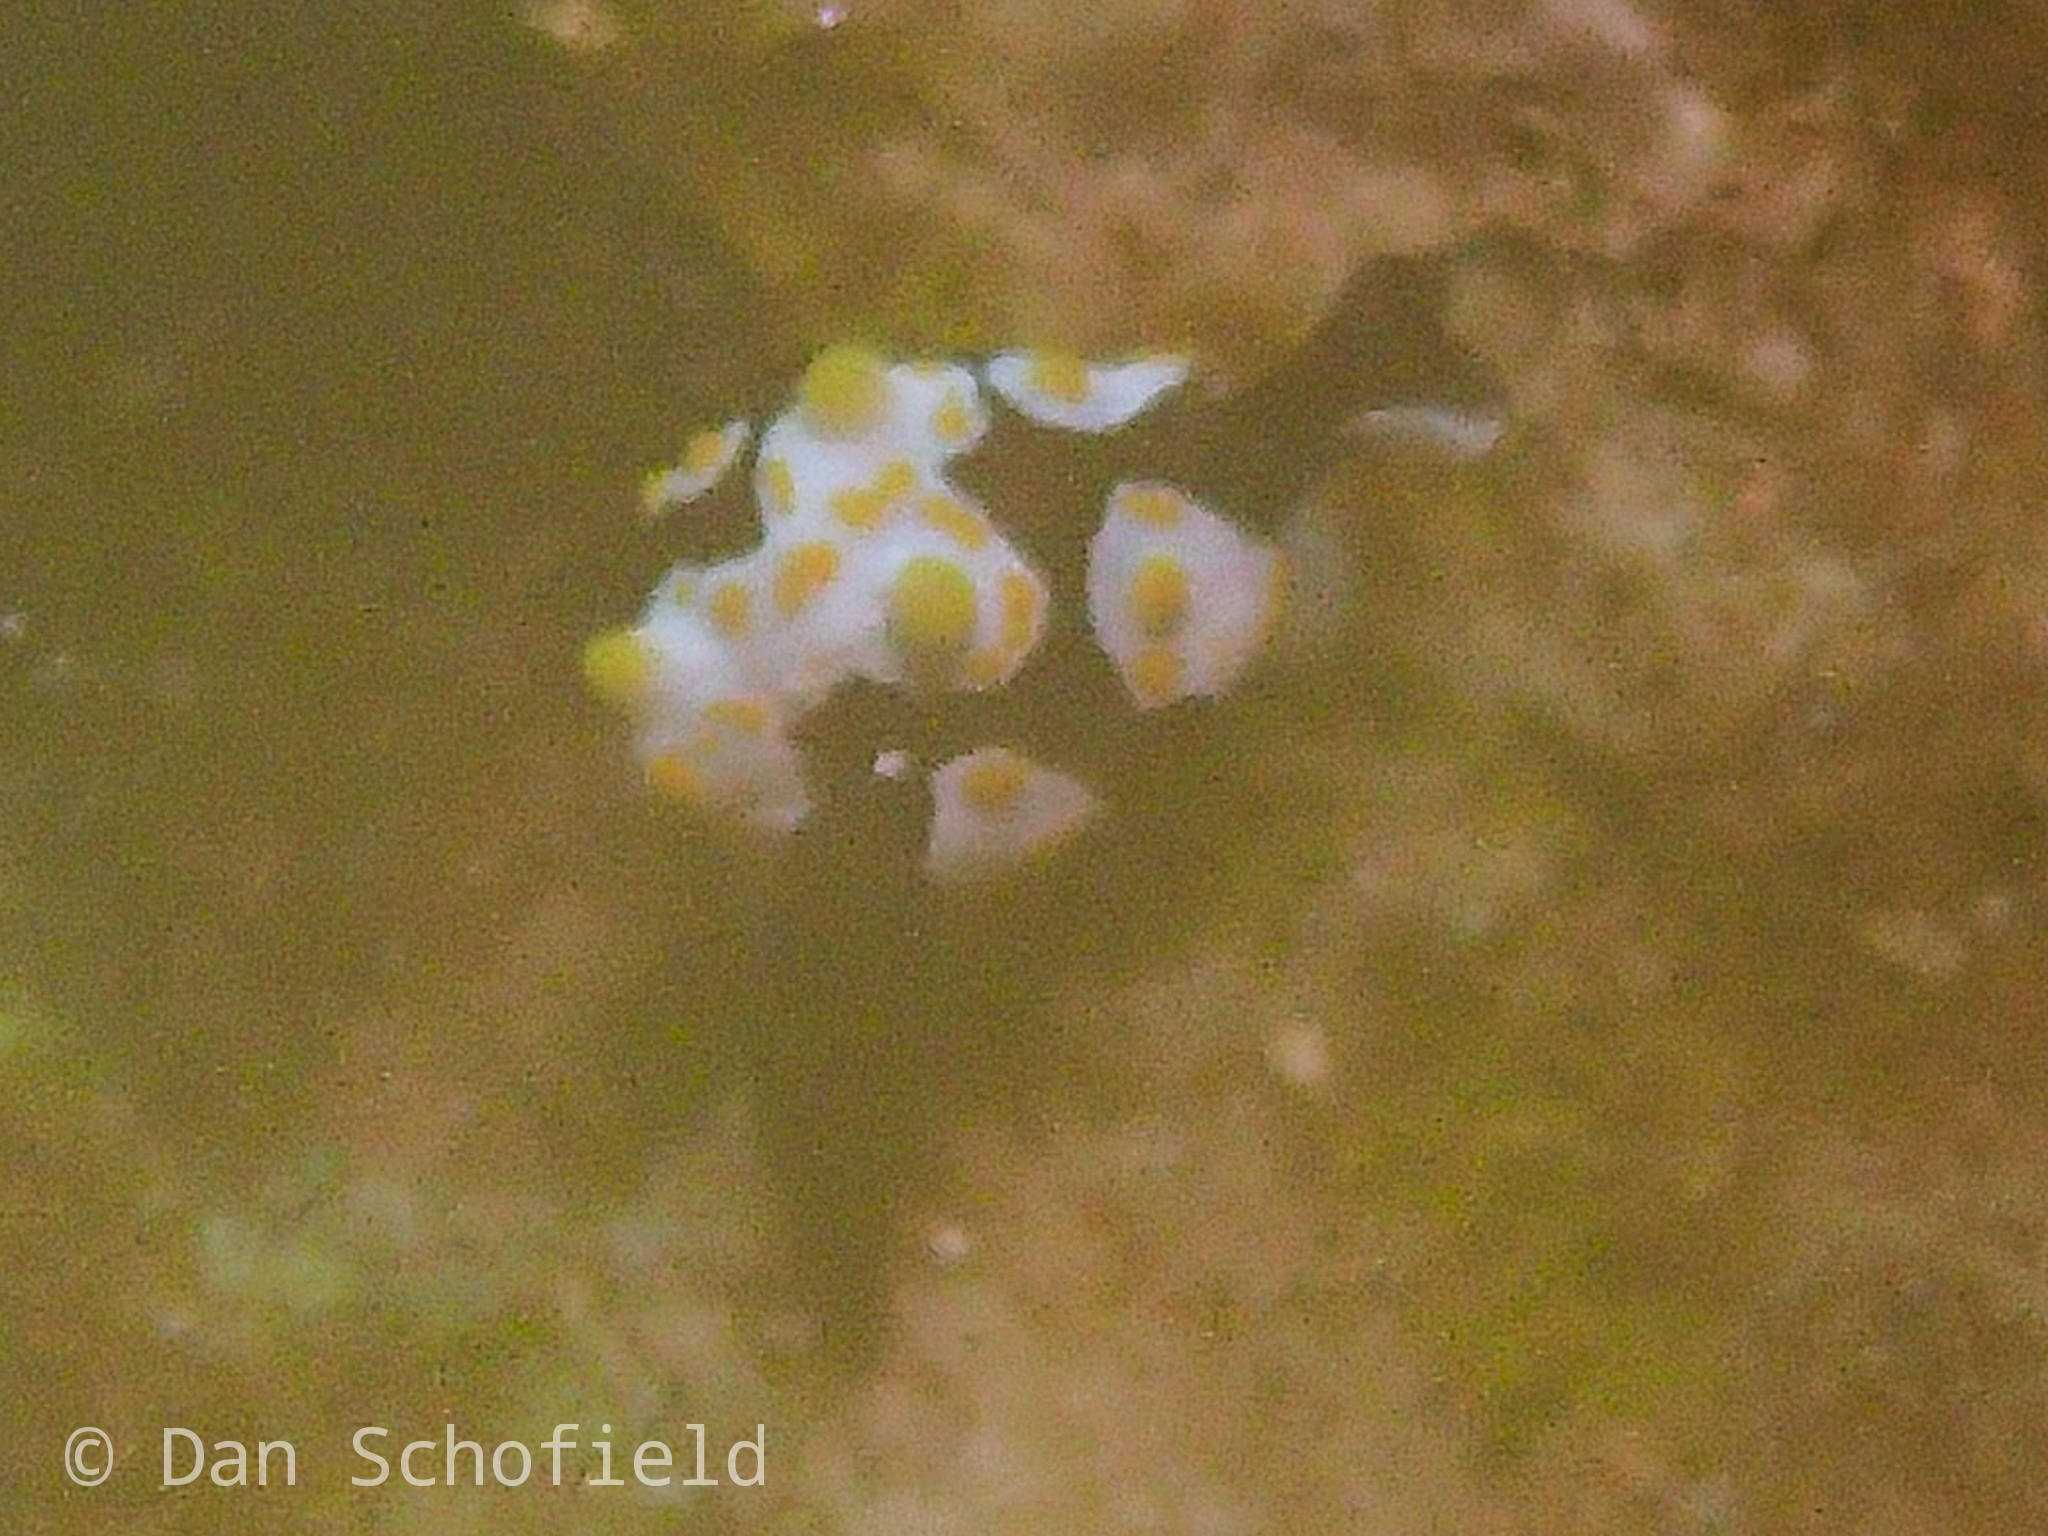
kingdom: Animalia
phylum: Mollusca
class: Gastropoda
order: Cephalaspidea
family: Colpodaspididae
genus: Colpodaspis
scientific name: Colpodaspis thompsoni
